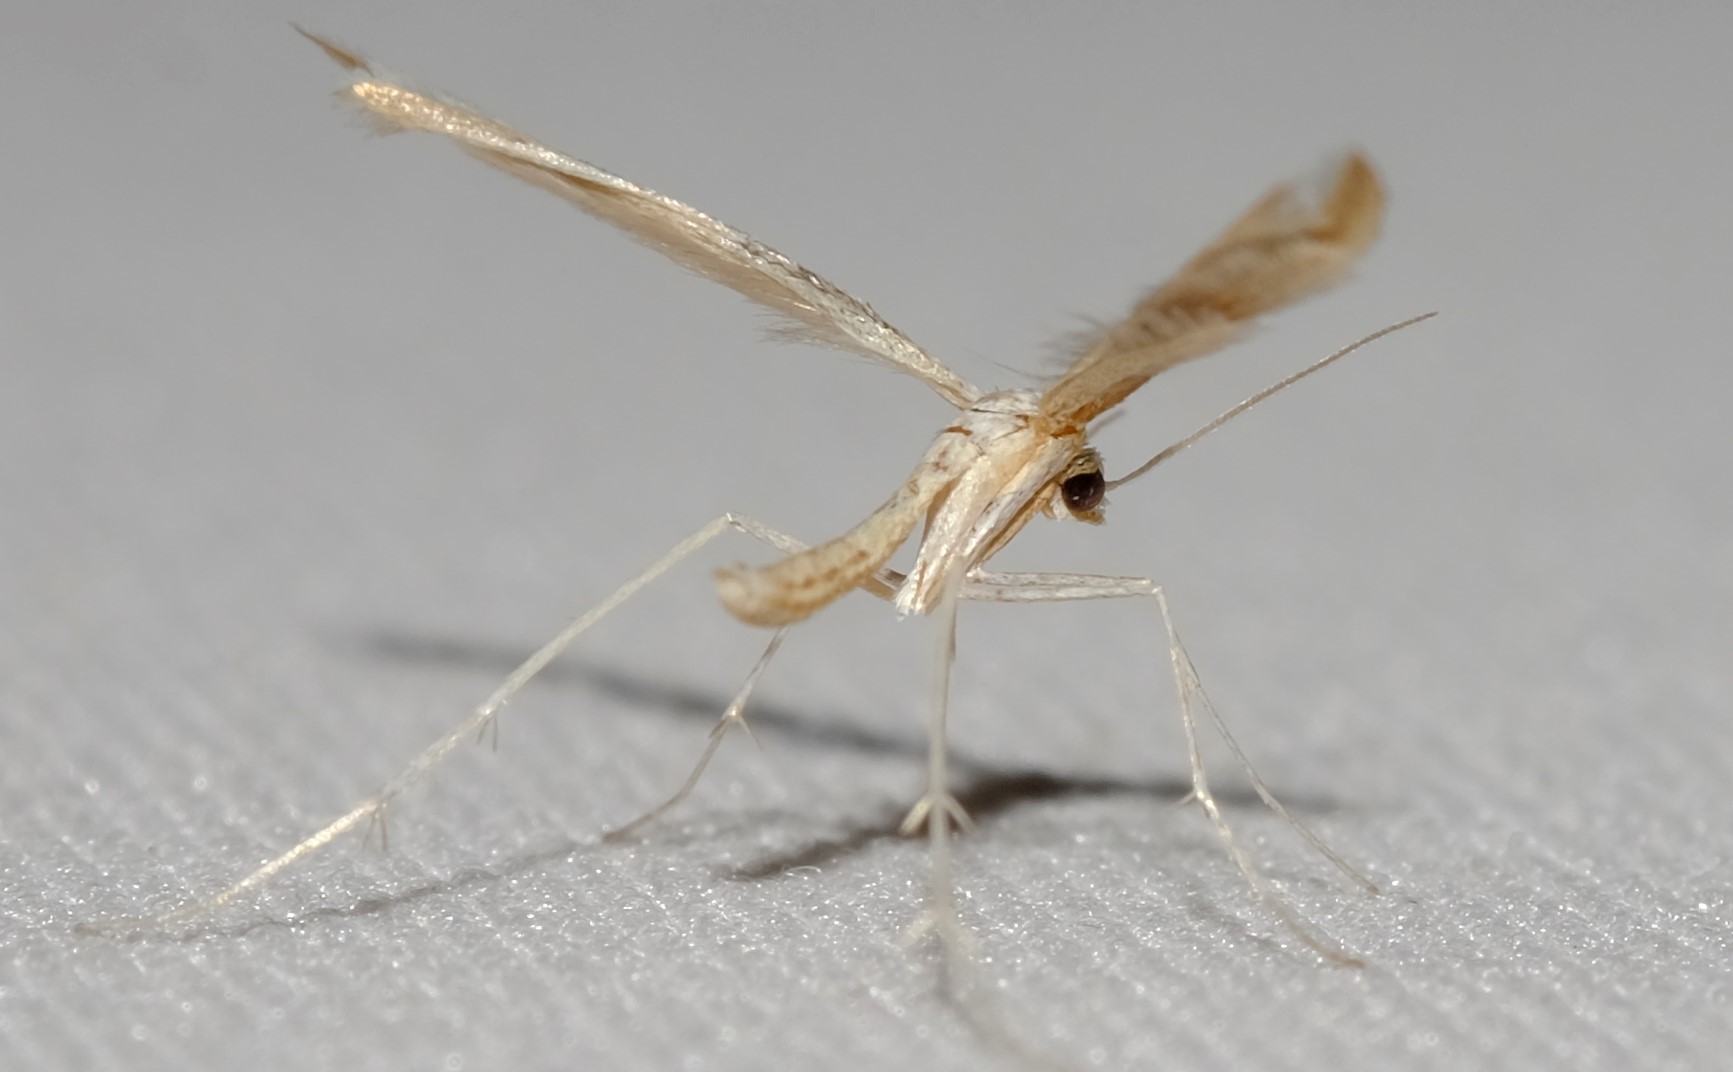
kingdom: Animalia
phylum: Arthropoda
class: Insecta
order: Lepidoptera
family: Pterophoridae
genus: Platyptilia
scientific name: Platyptilia celidotus
